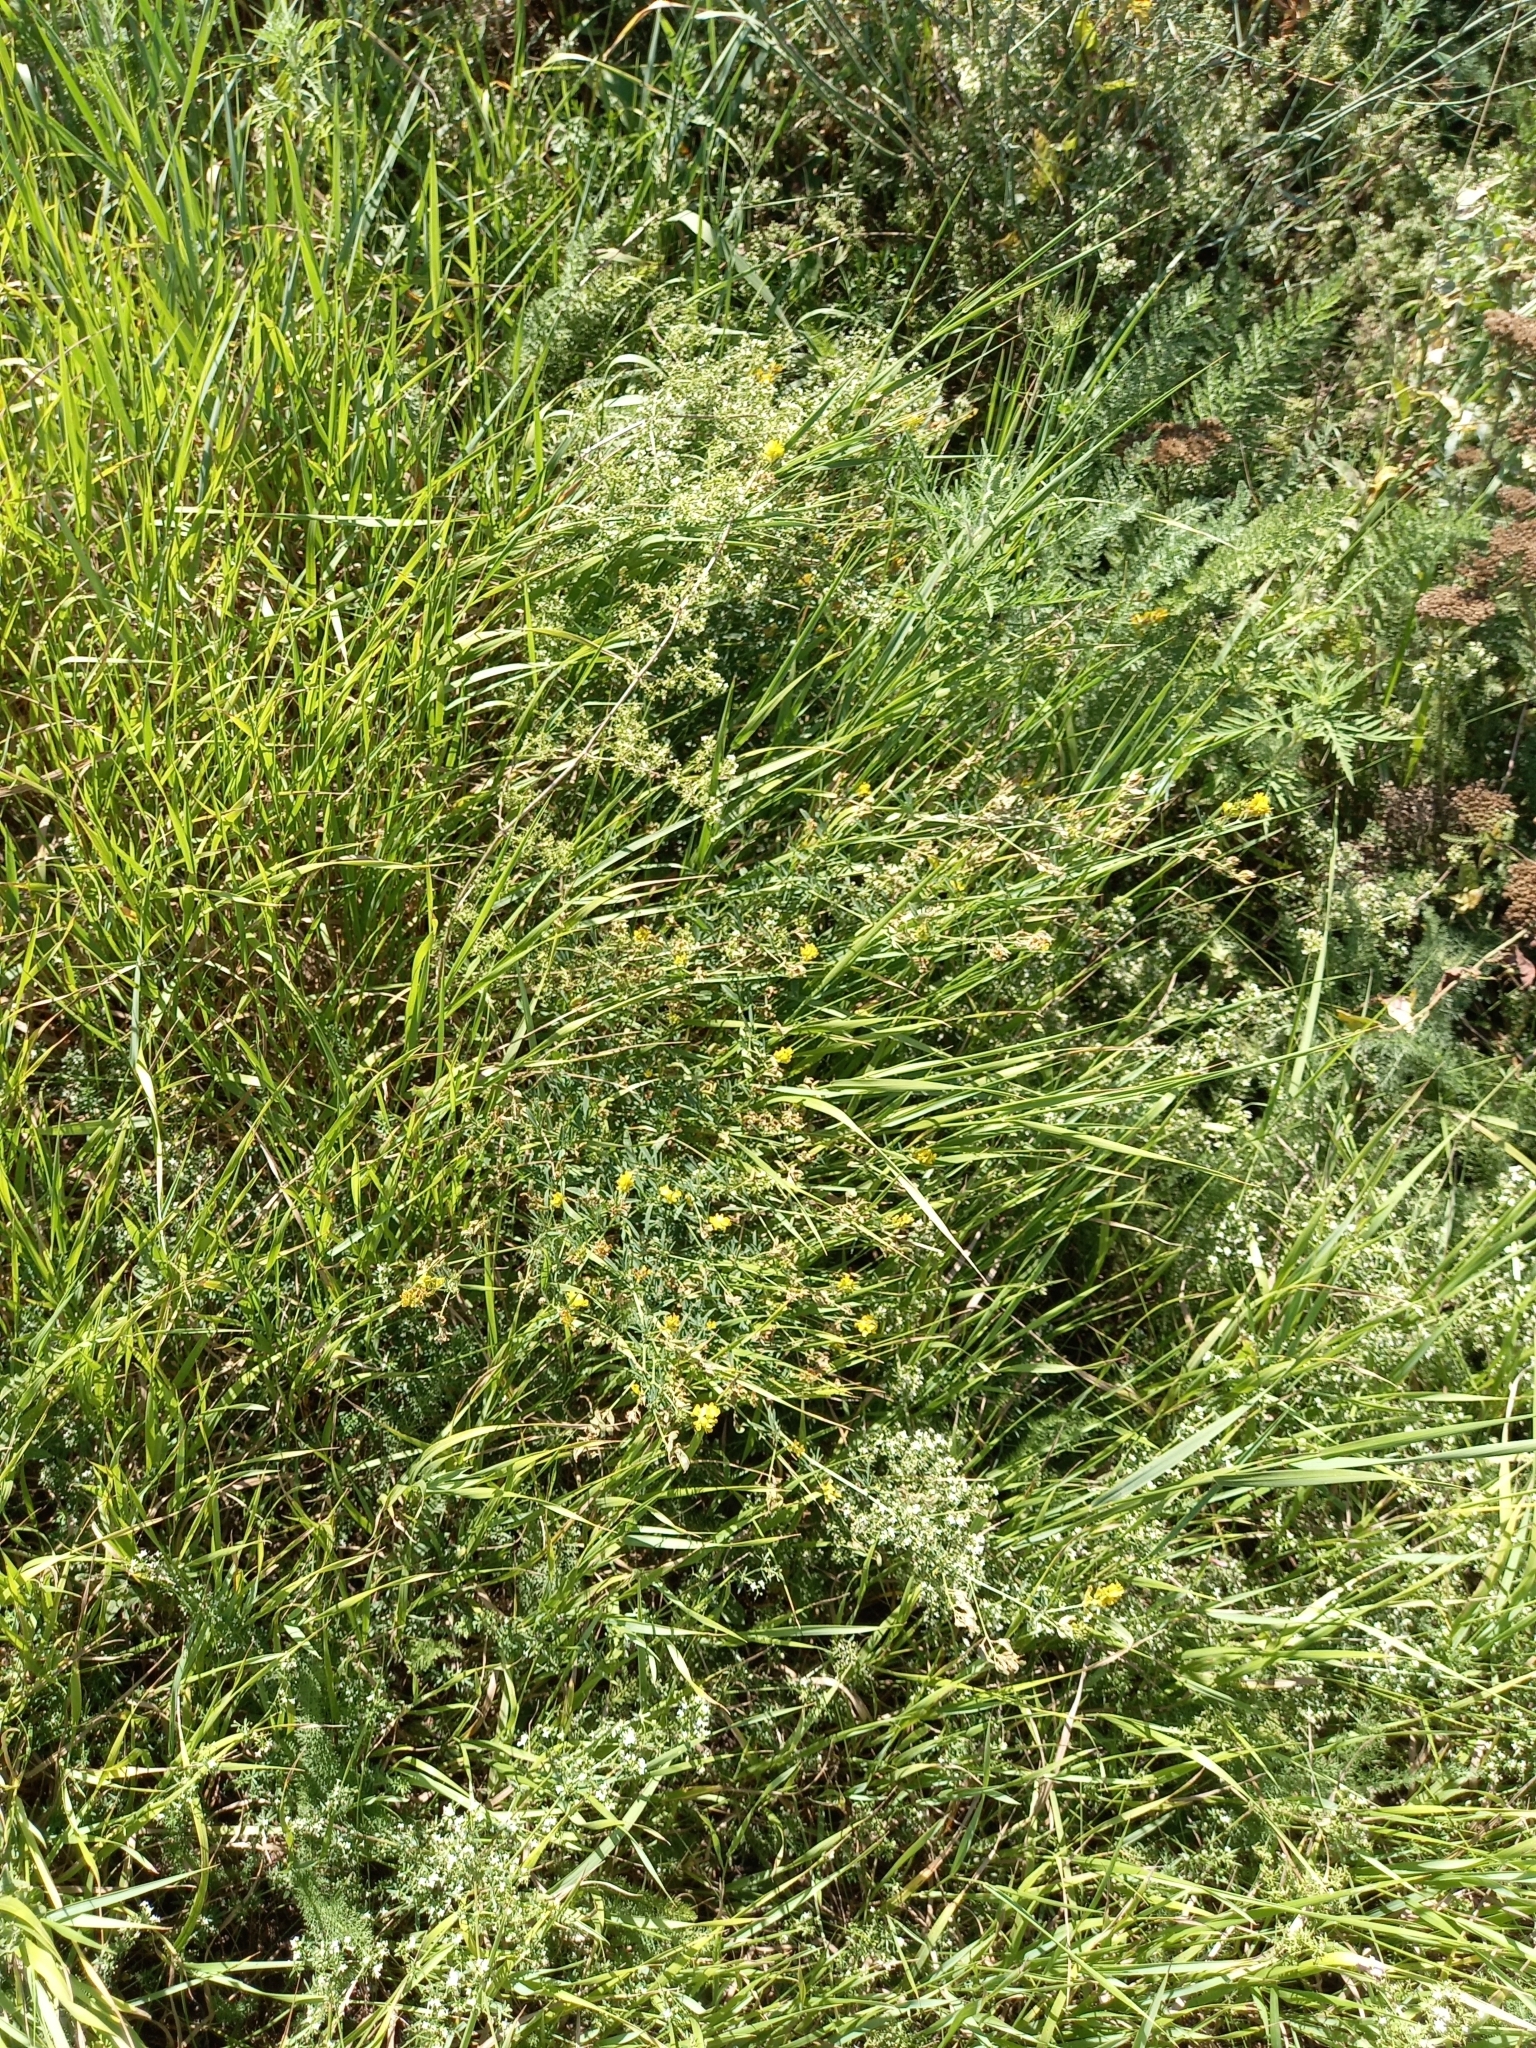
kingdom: Plantae
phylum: Tracheophyta
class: Magnoliopsida
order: Fabales
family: Fabaceae
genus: Medicago
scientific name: Medicago falcata
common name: Sickle medick
